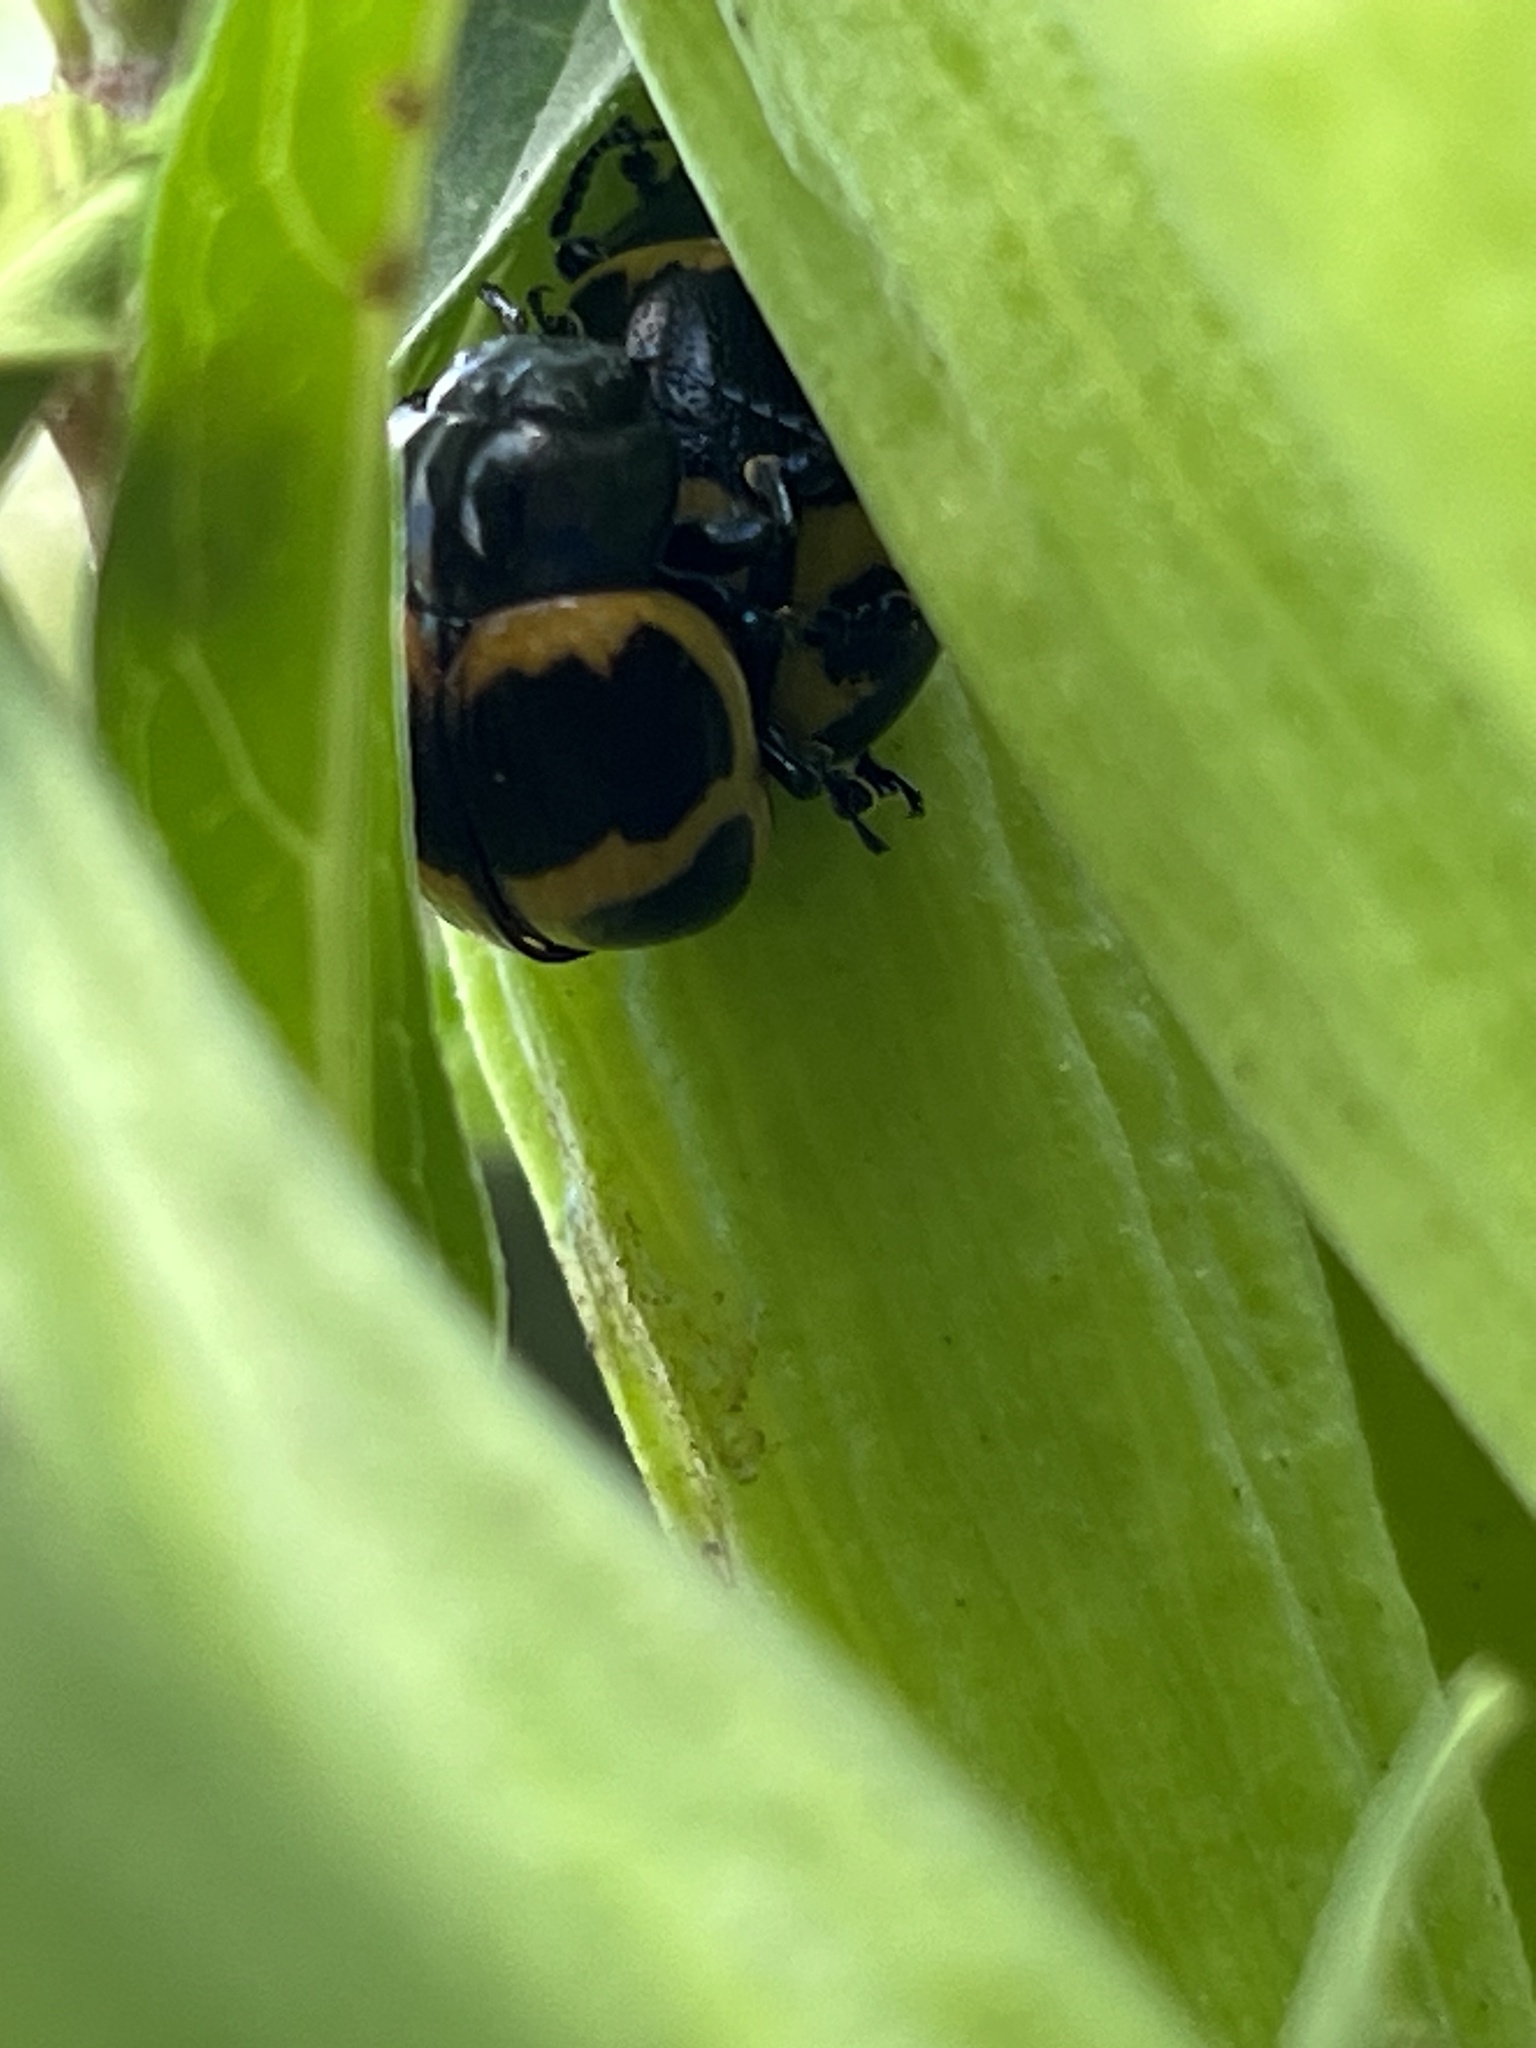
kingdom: Animalia
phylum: Arthropoda
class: Insecta
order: Coleoptera
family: Chrysomelidae
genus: Labidomera
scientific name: Labidomera clivicollis
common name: Swamp milkweed leaf beetle
